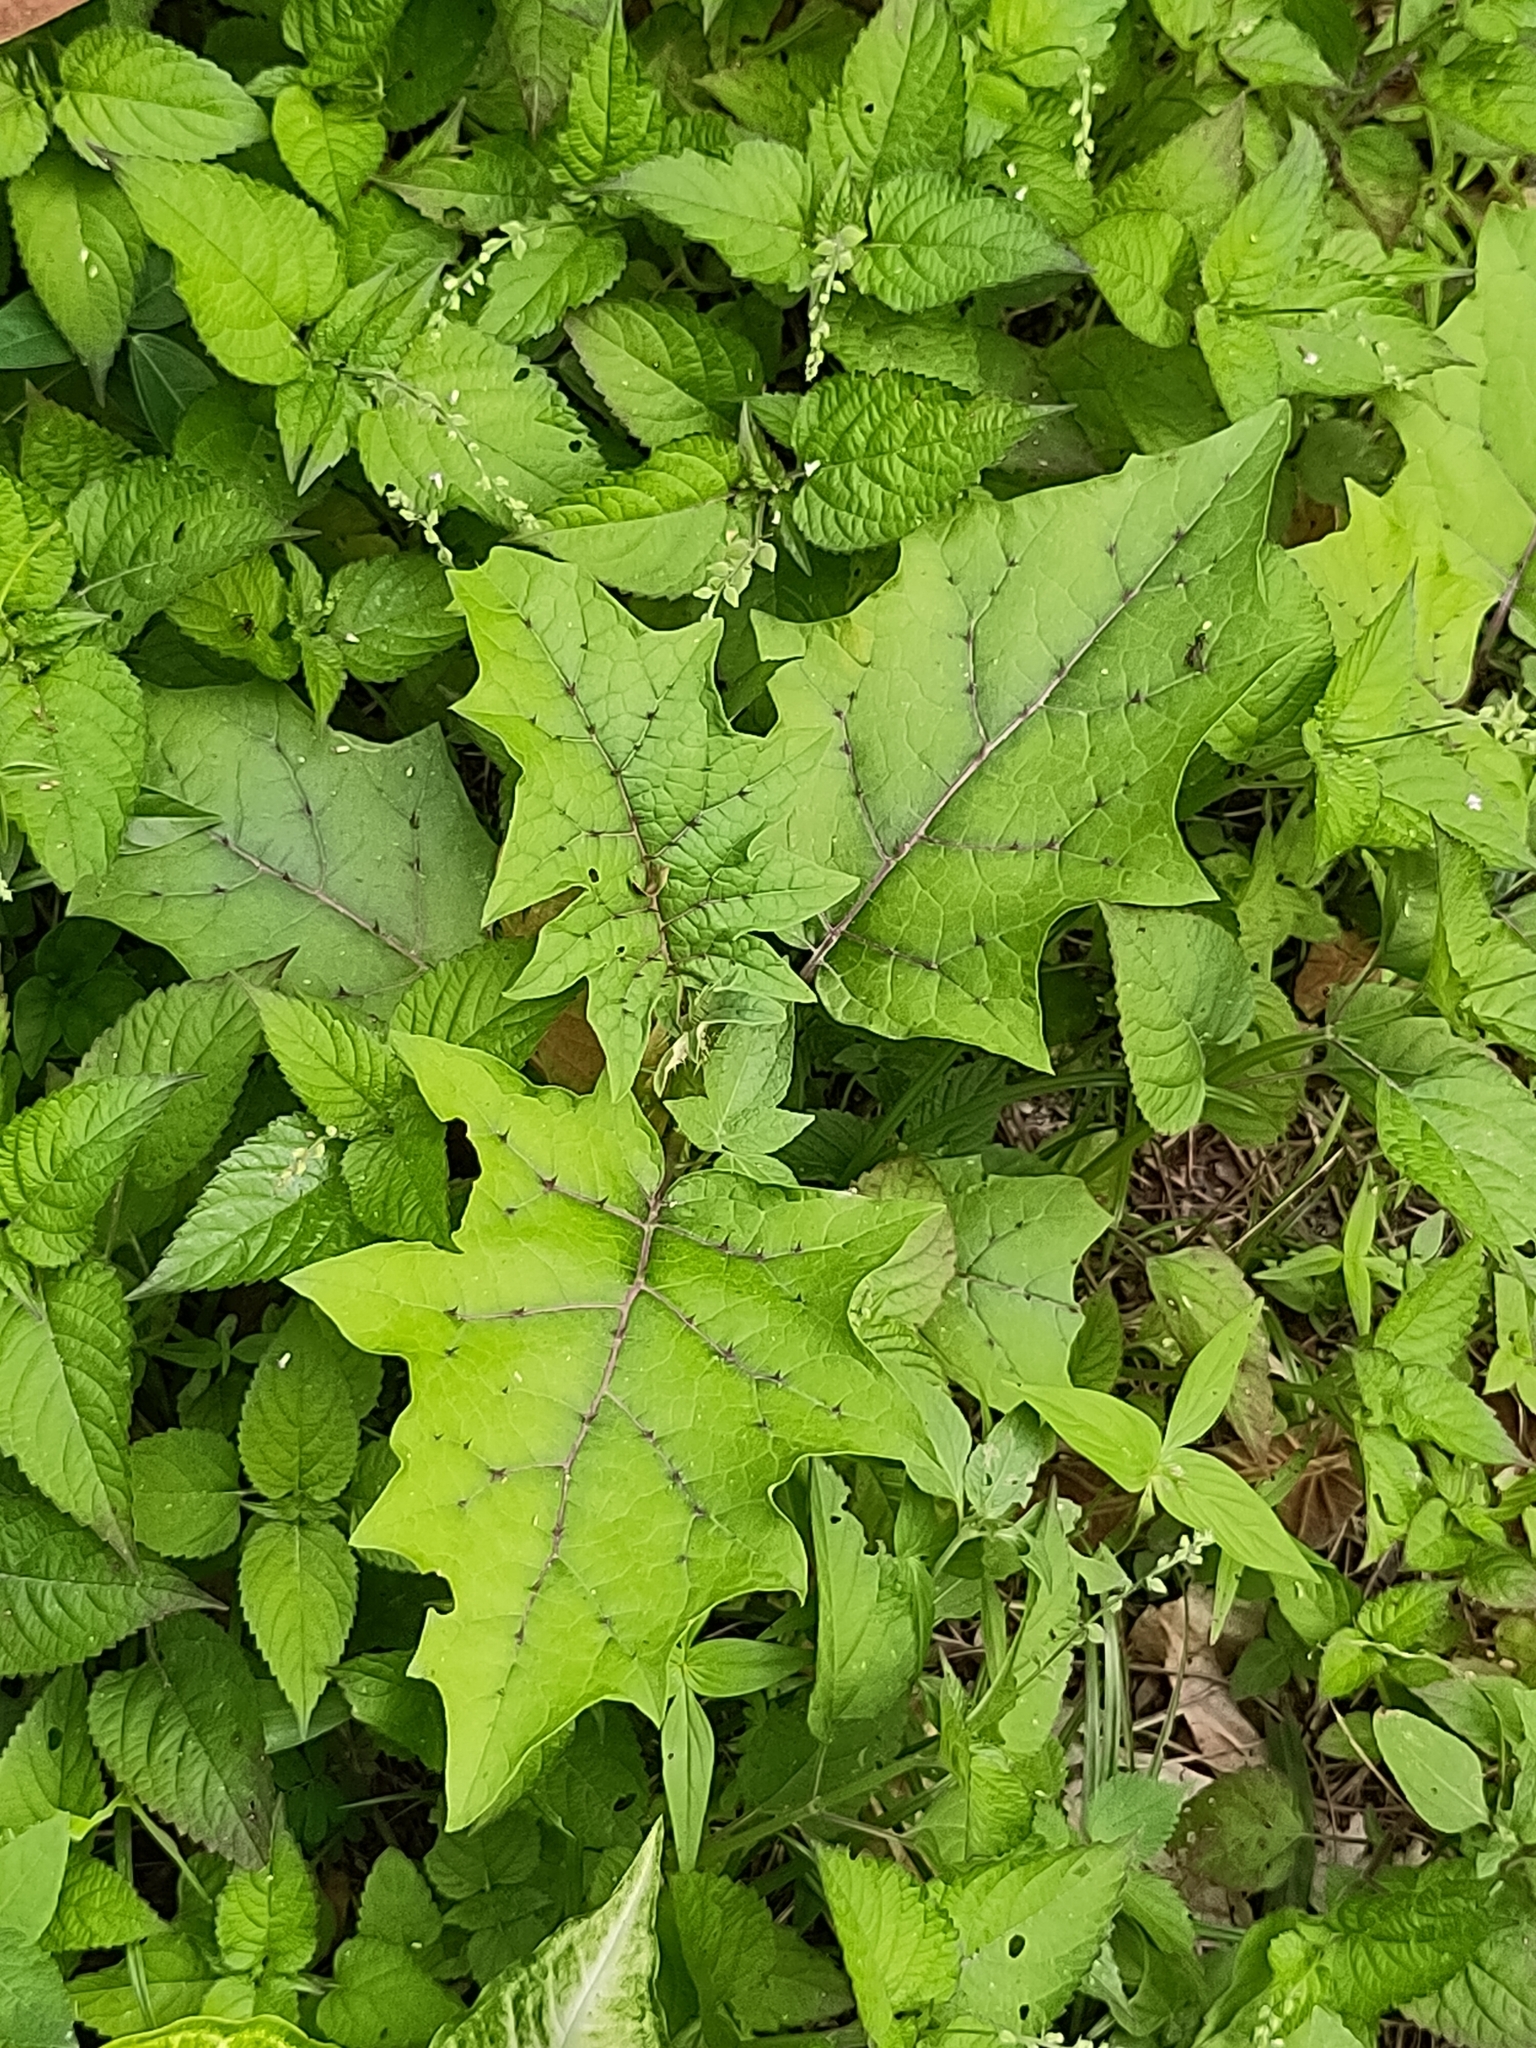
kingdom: Plantae
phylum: Tracheophyta
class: Magnoliopsida
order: Solanales
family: Solanaceae
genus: Solanum
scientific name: Solanum
